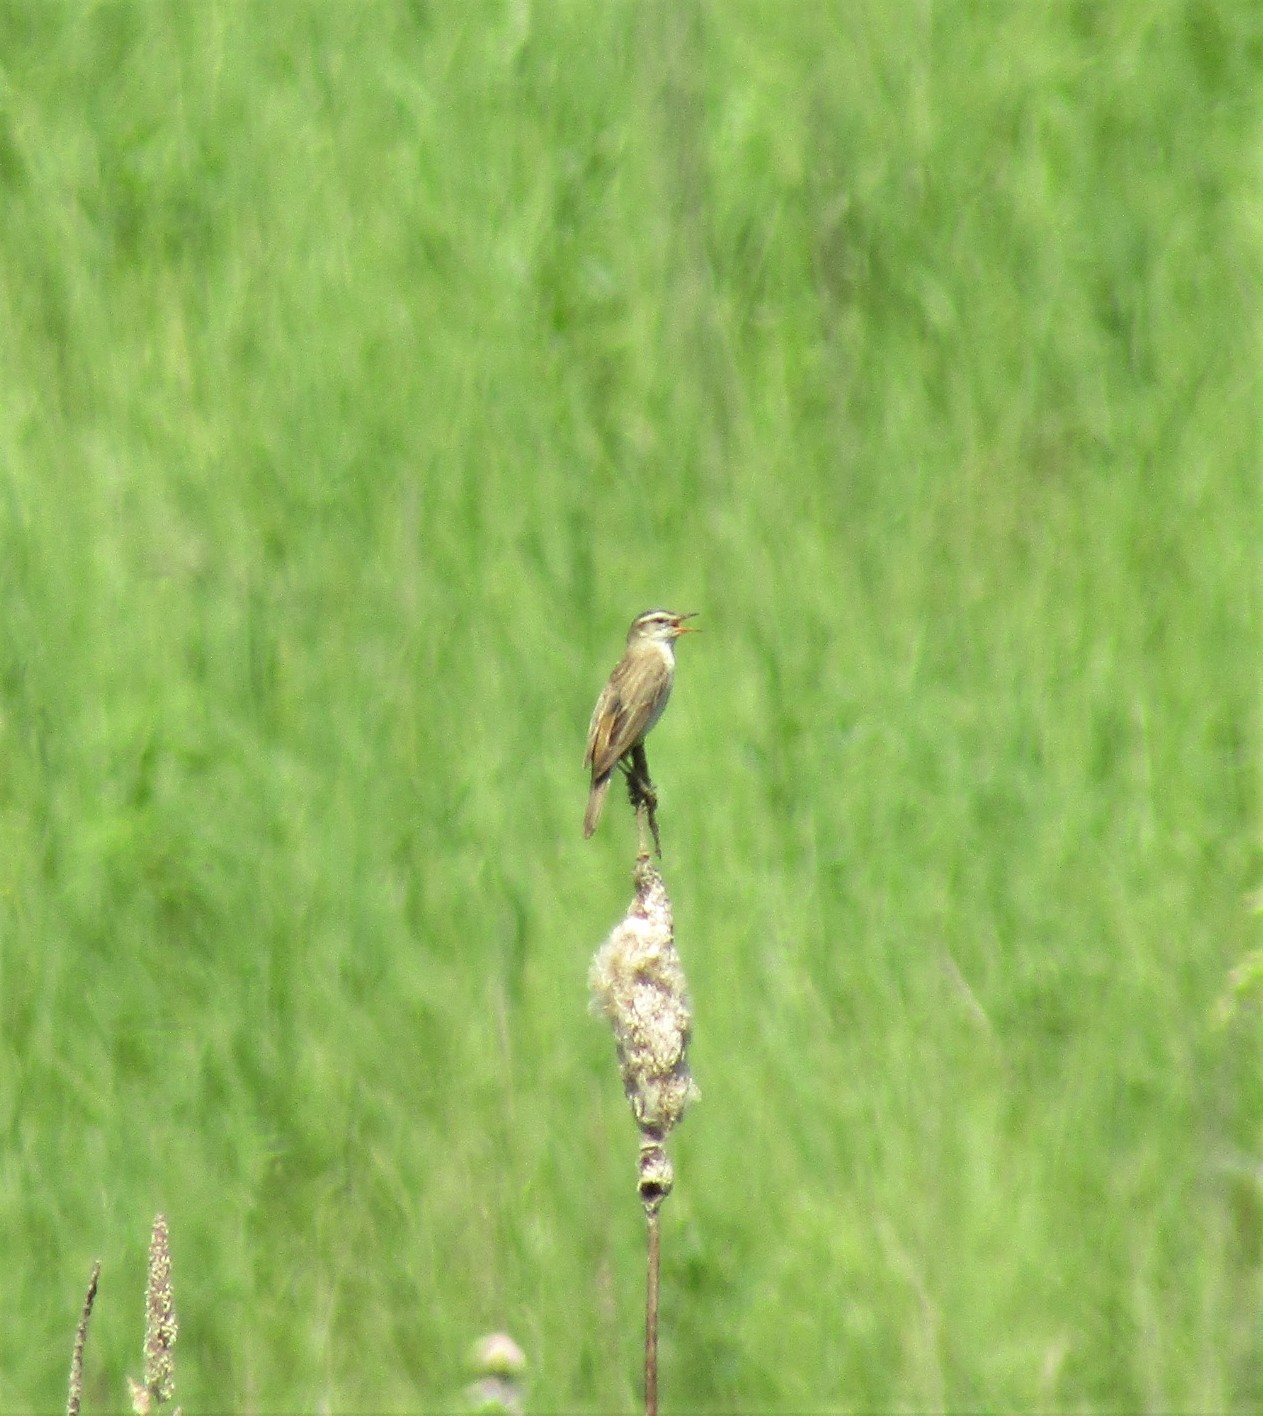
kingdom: Animalia
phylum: Chordata
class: Aves
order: Passeriformes
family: Acrocephalidae
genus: Acrocephalus
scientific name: Acrocephalus schoenobaenus
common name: Sedge warbler
